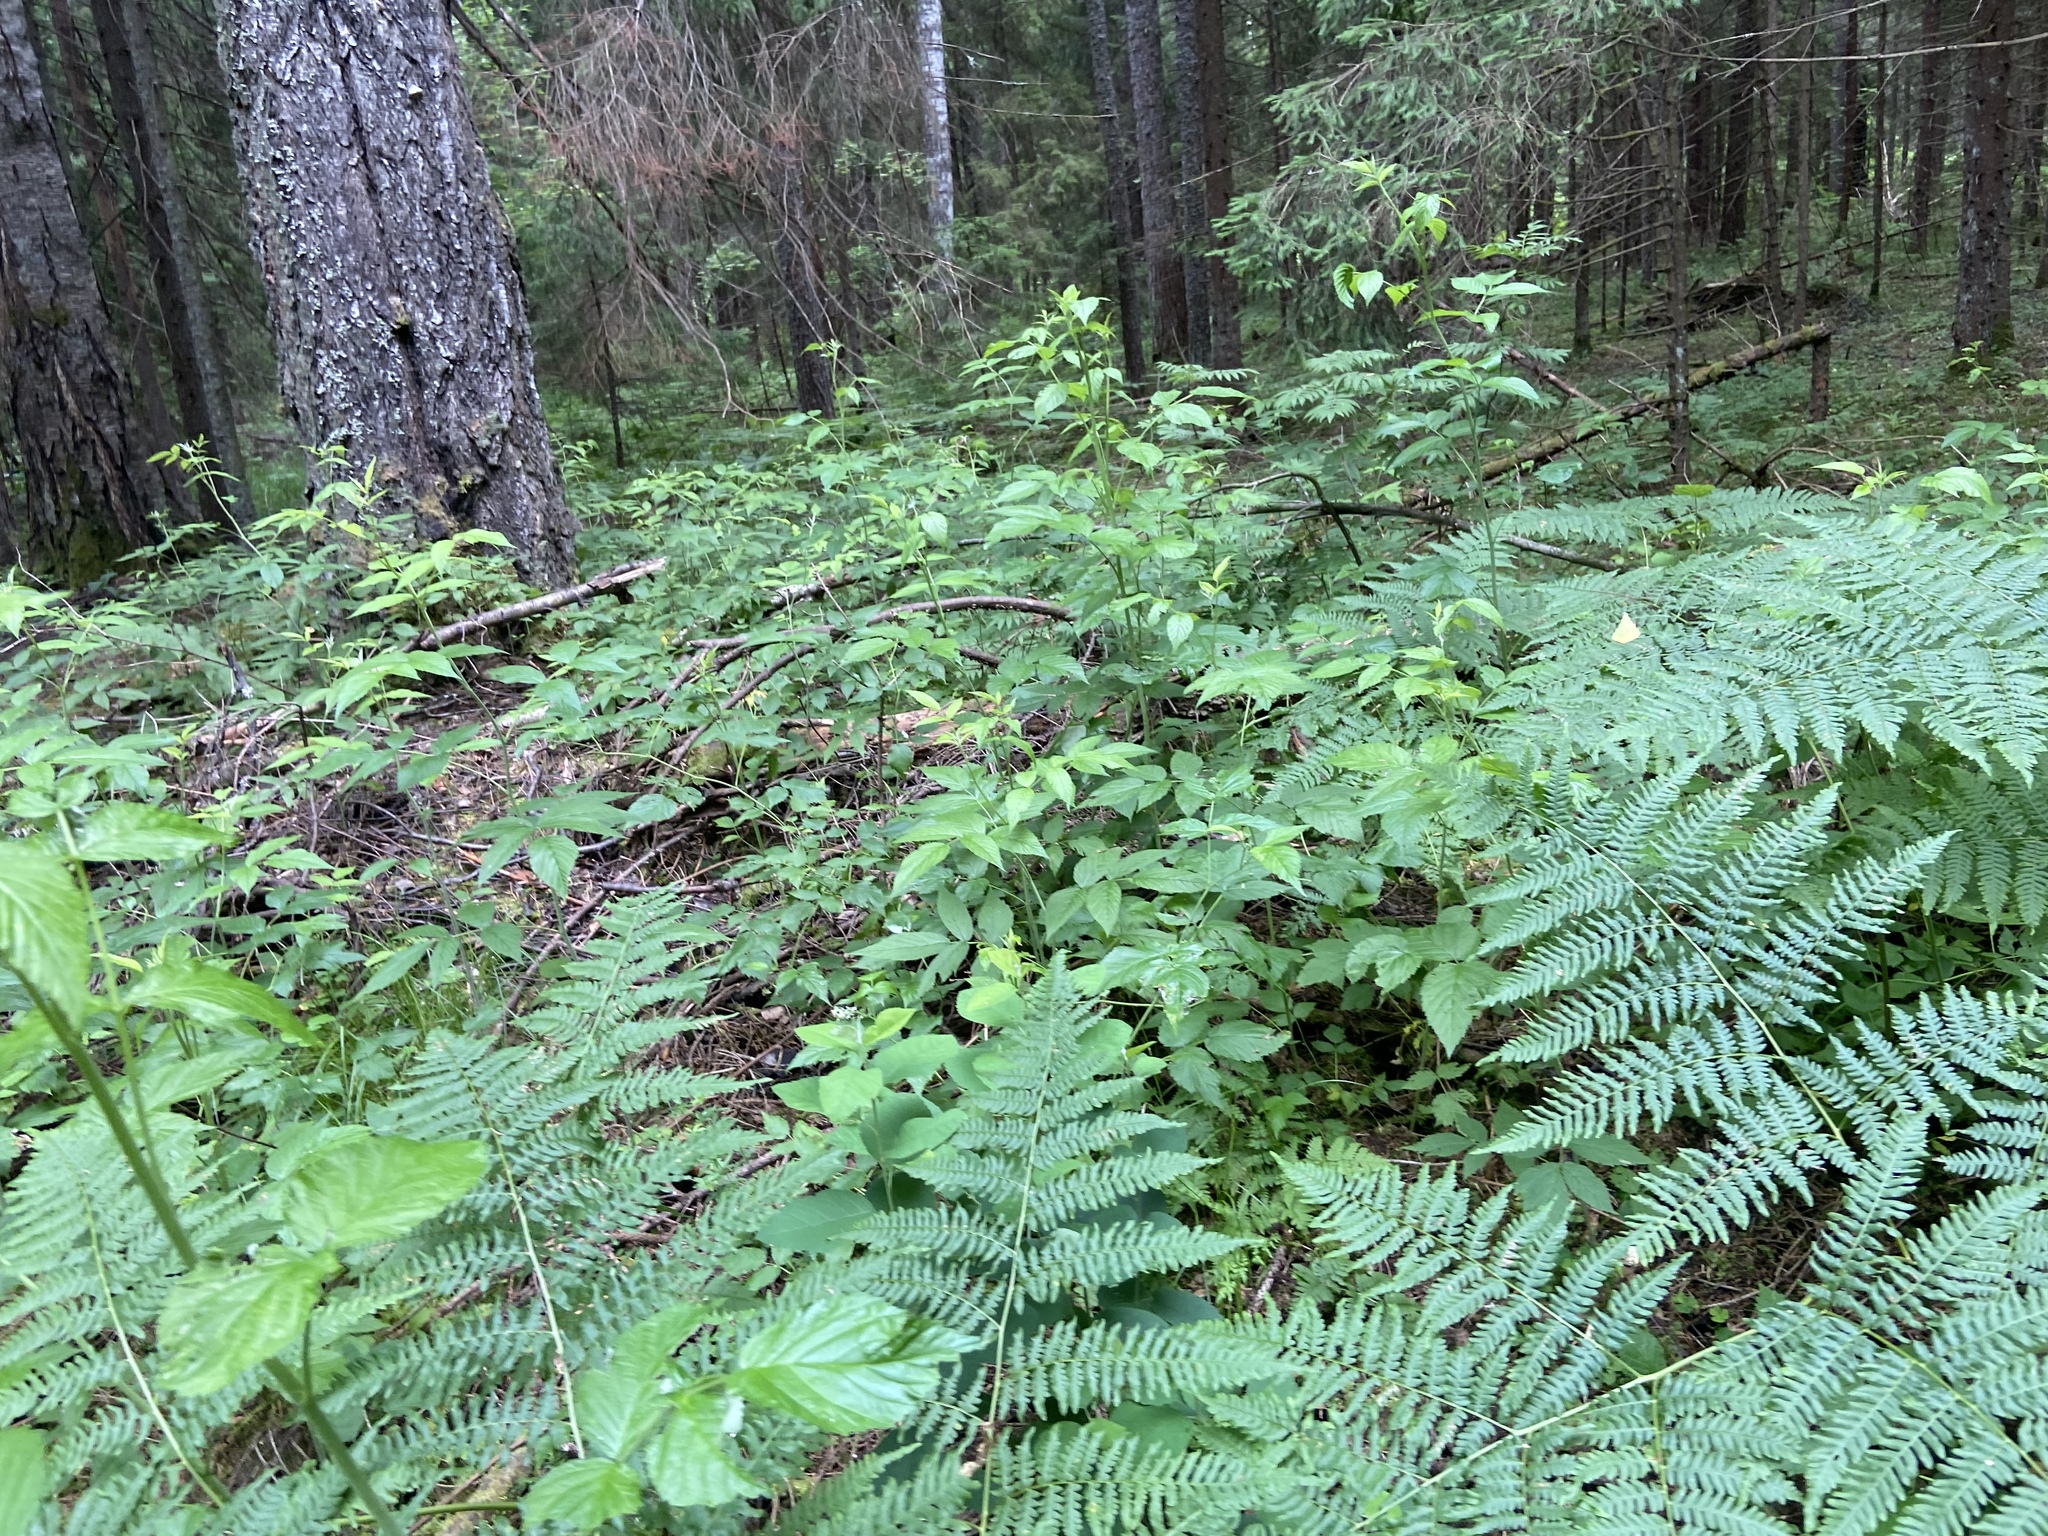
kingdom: Plantae
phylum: Tracheophyta
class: Magnoliopsida
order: Rosales
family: Rosaceae
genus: Rubus
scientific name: Rubus idaeus
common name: Raspberry
